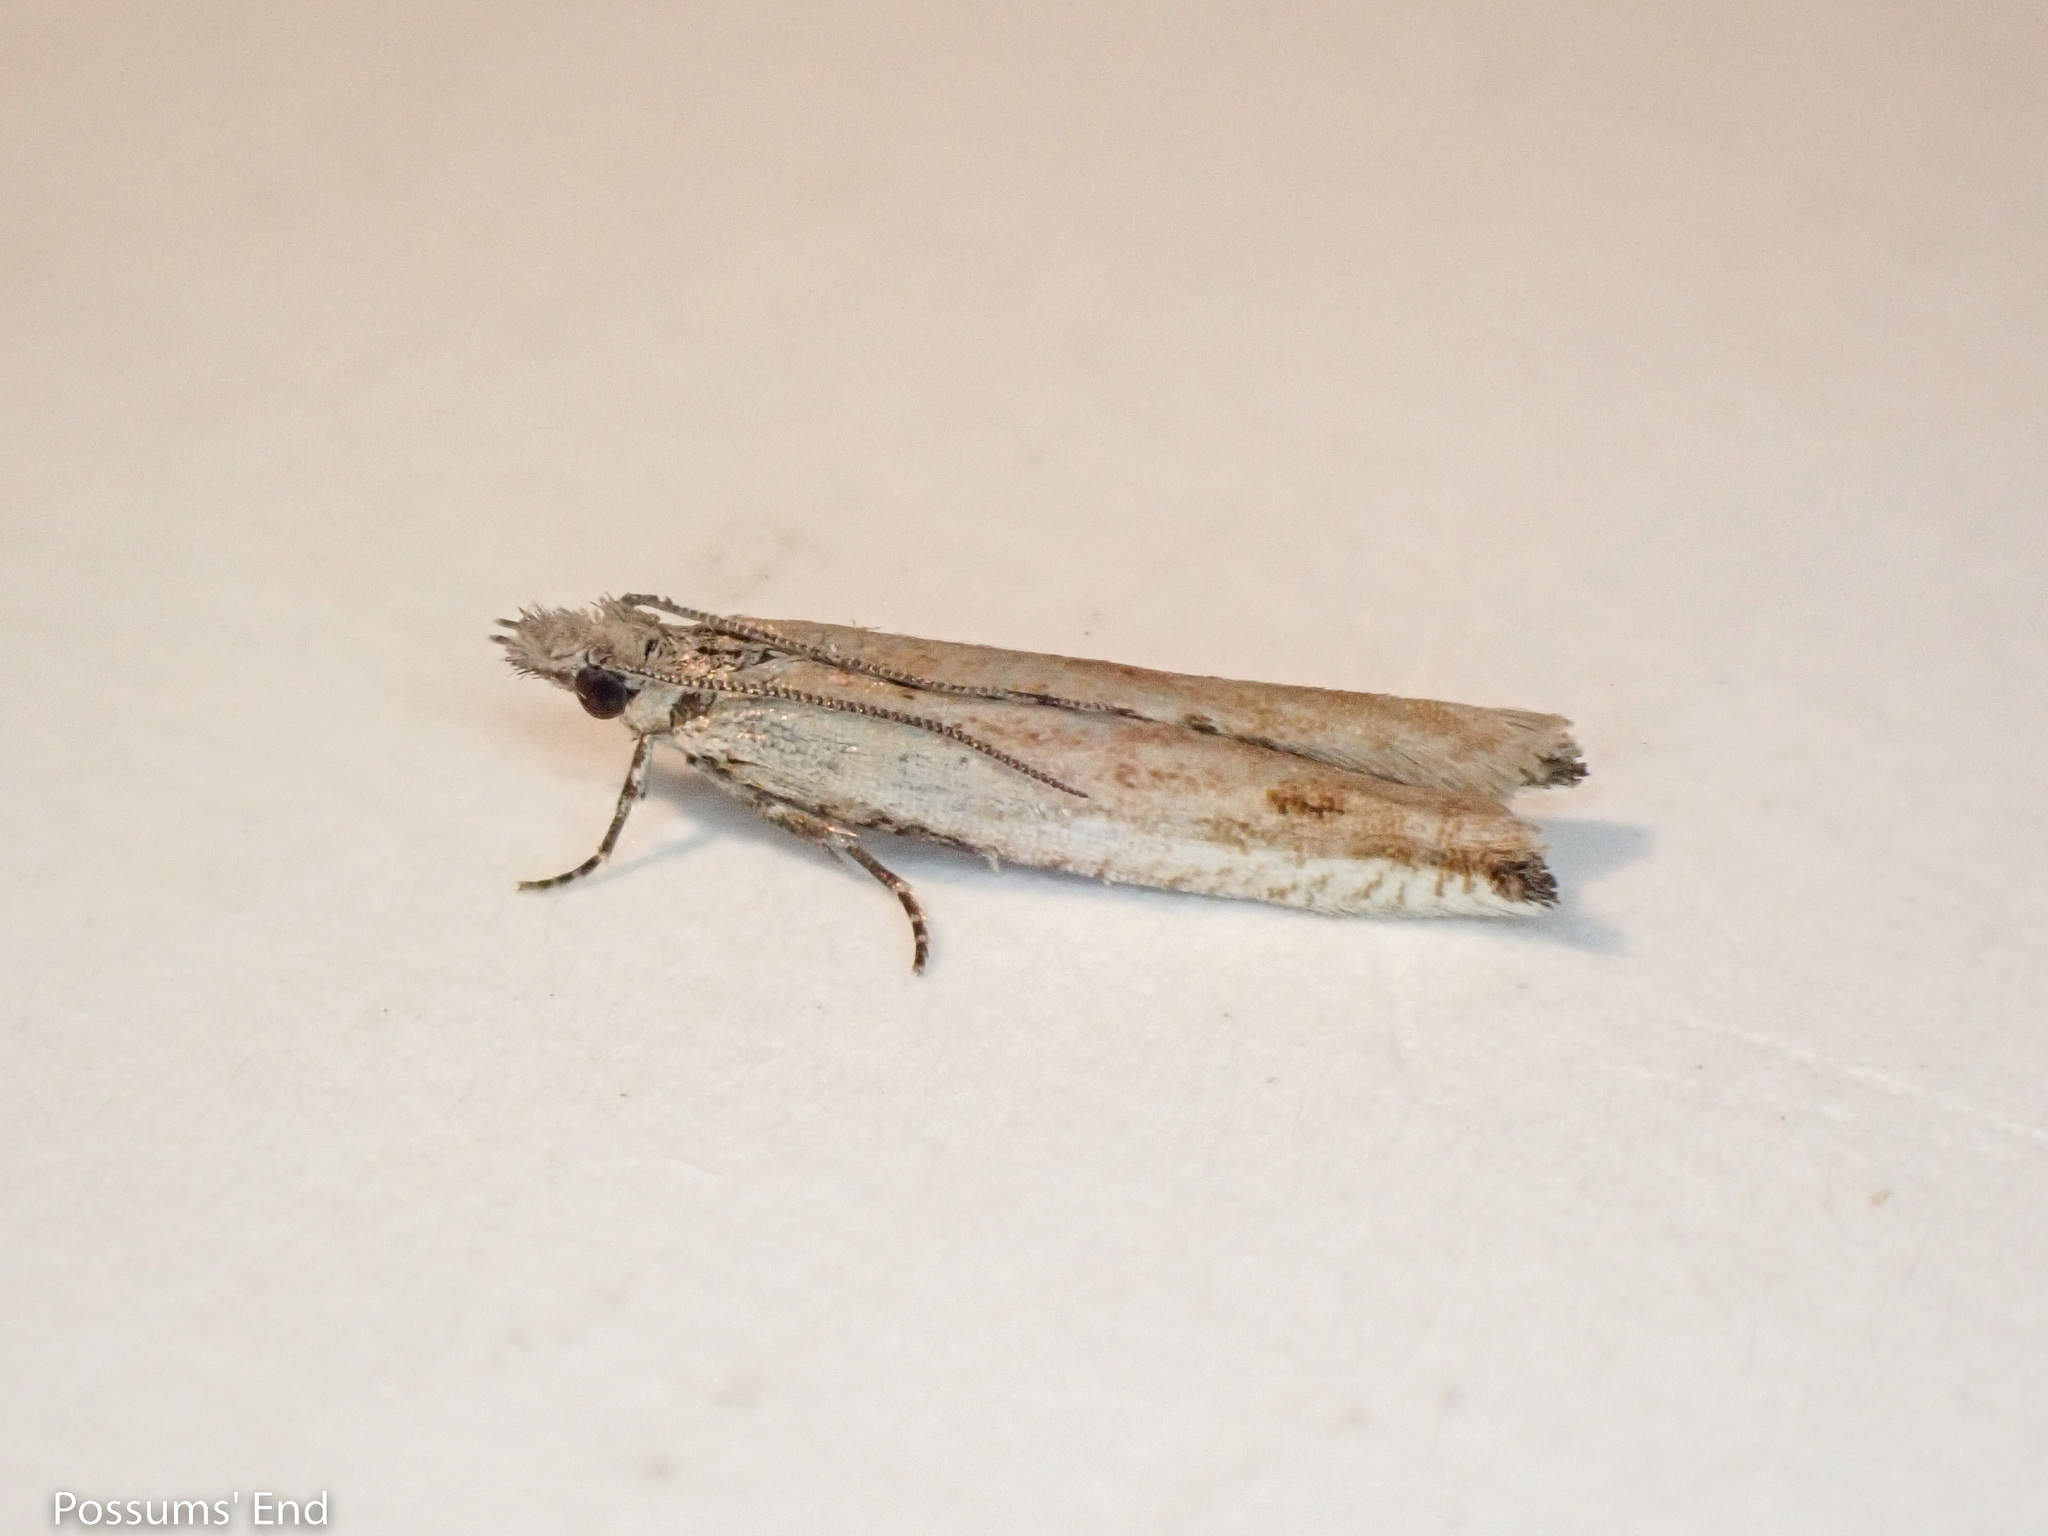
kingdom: Animalia
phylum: Arthropoda
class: Insecta
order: Lepidoptera
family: Tortricidae
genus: Holocola
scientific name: Holocola
